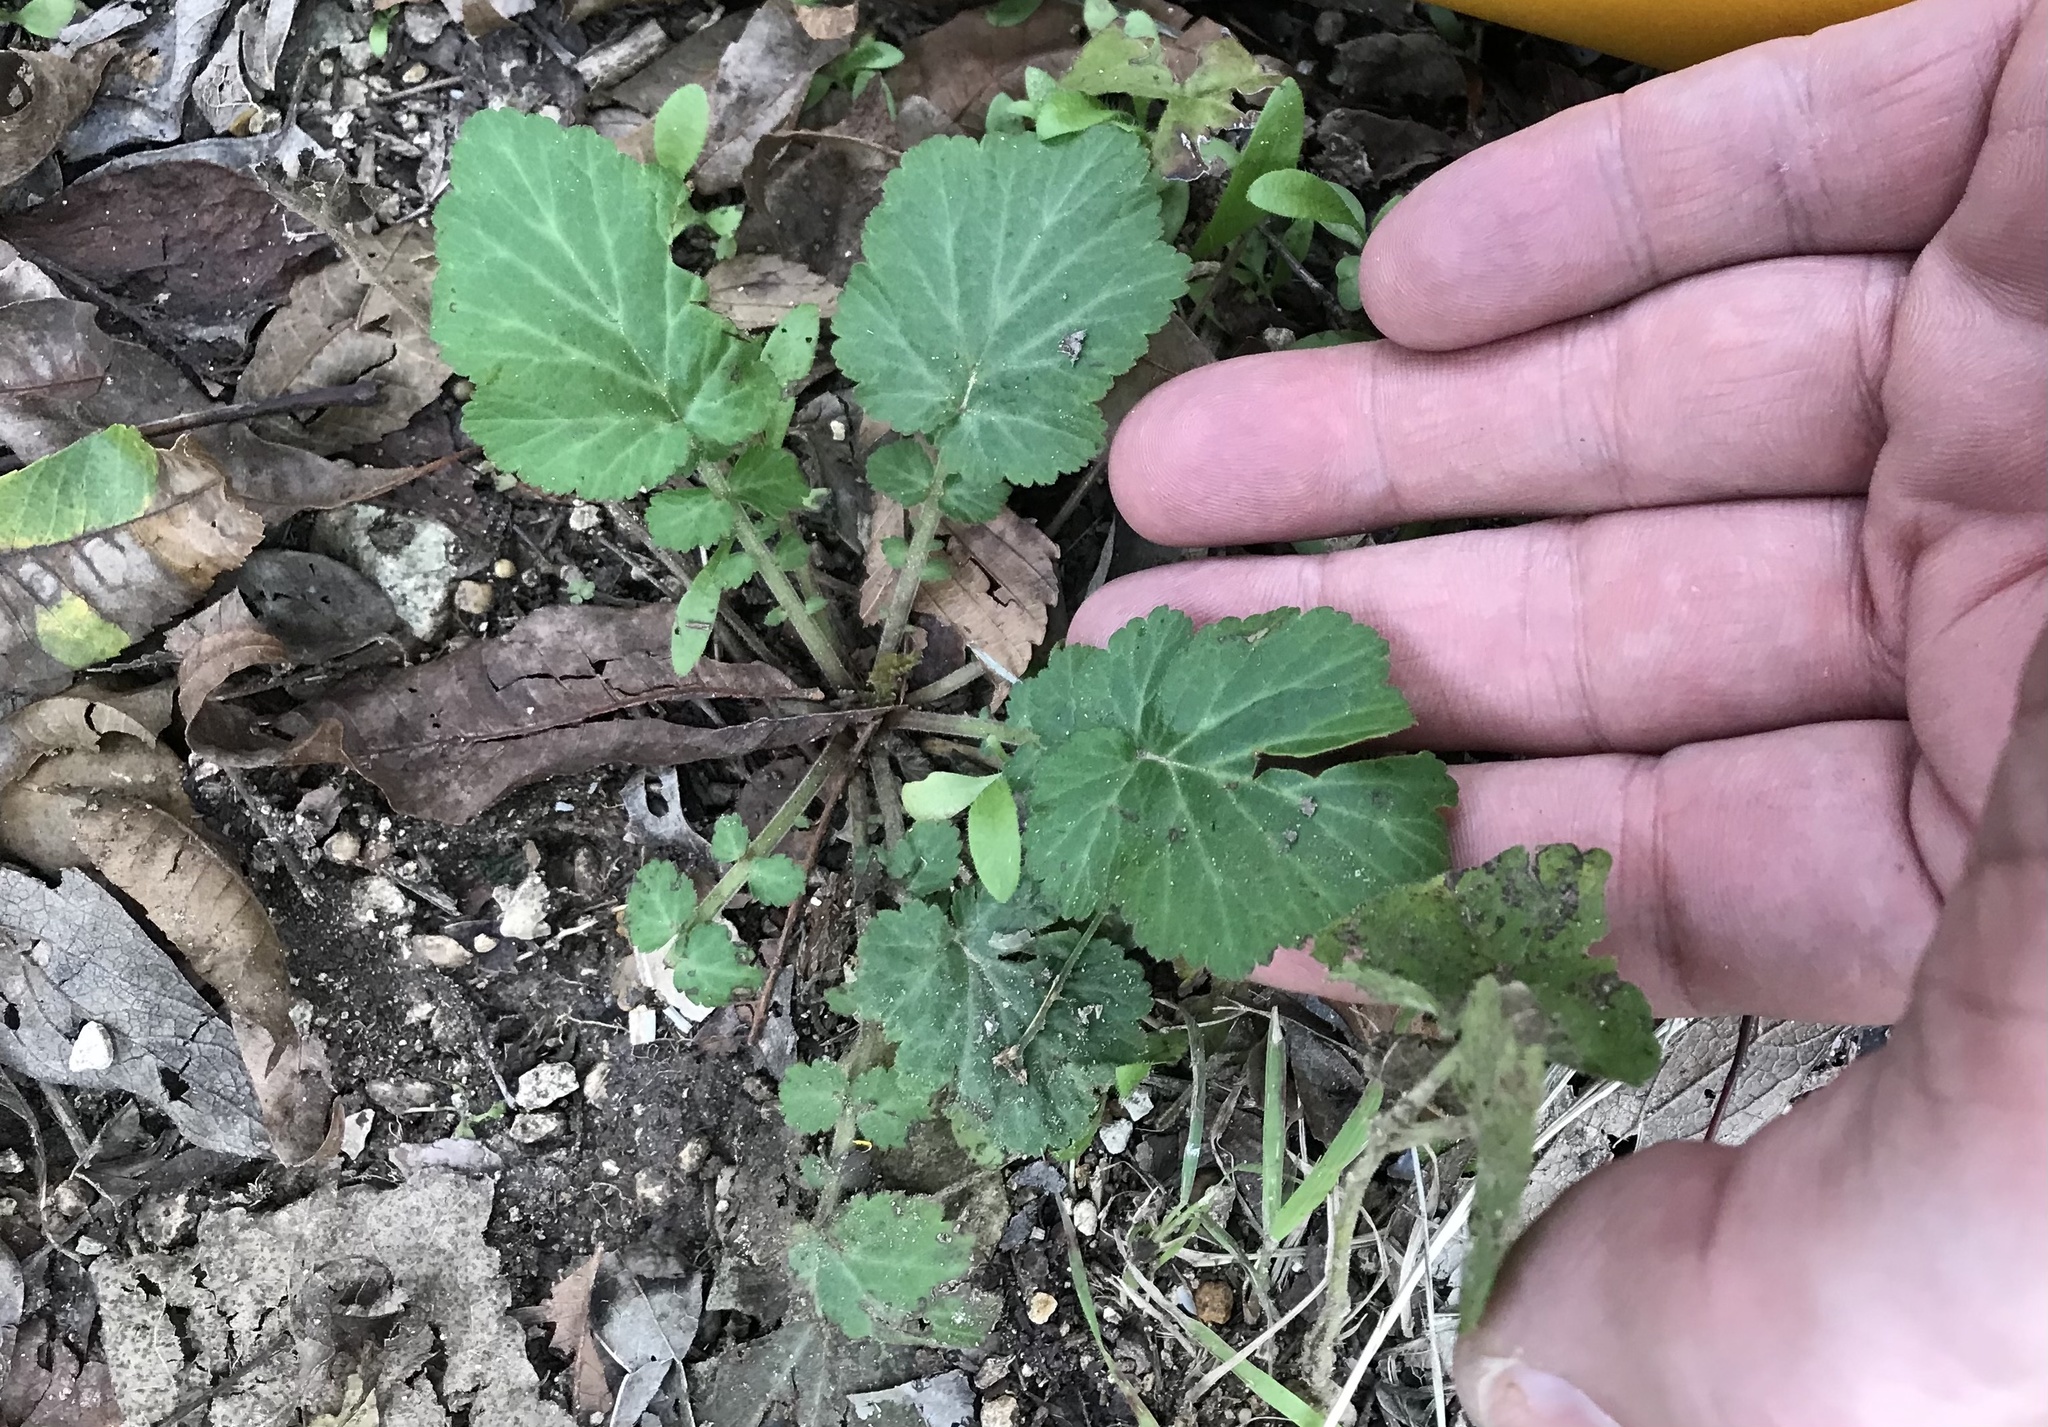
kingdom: Plantae
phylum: Tracheophyta
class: Magnoliopsida
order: Rosales
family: Rosaceae
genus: Geum
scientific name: Geum canadense
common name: White avens
